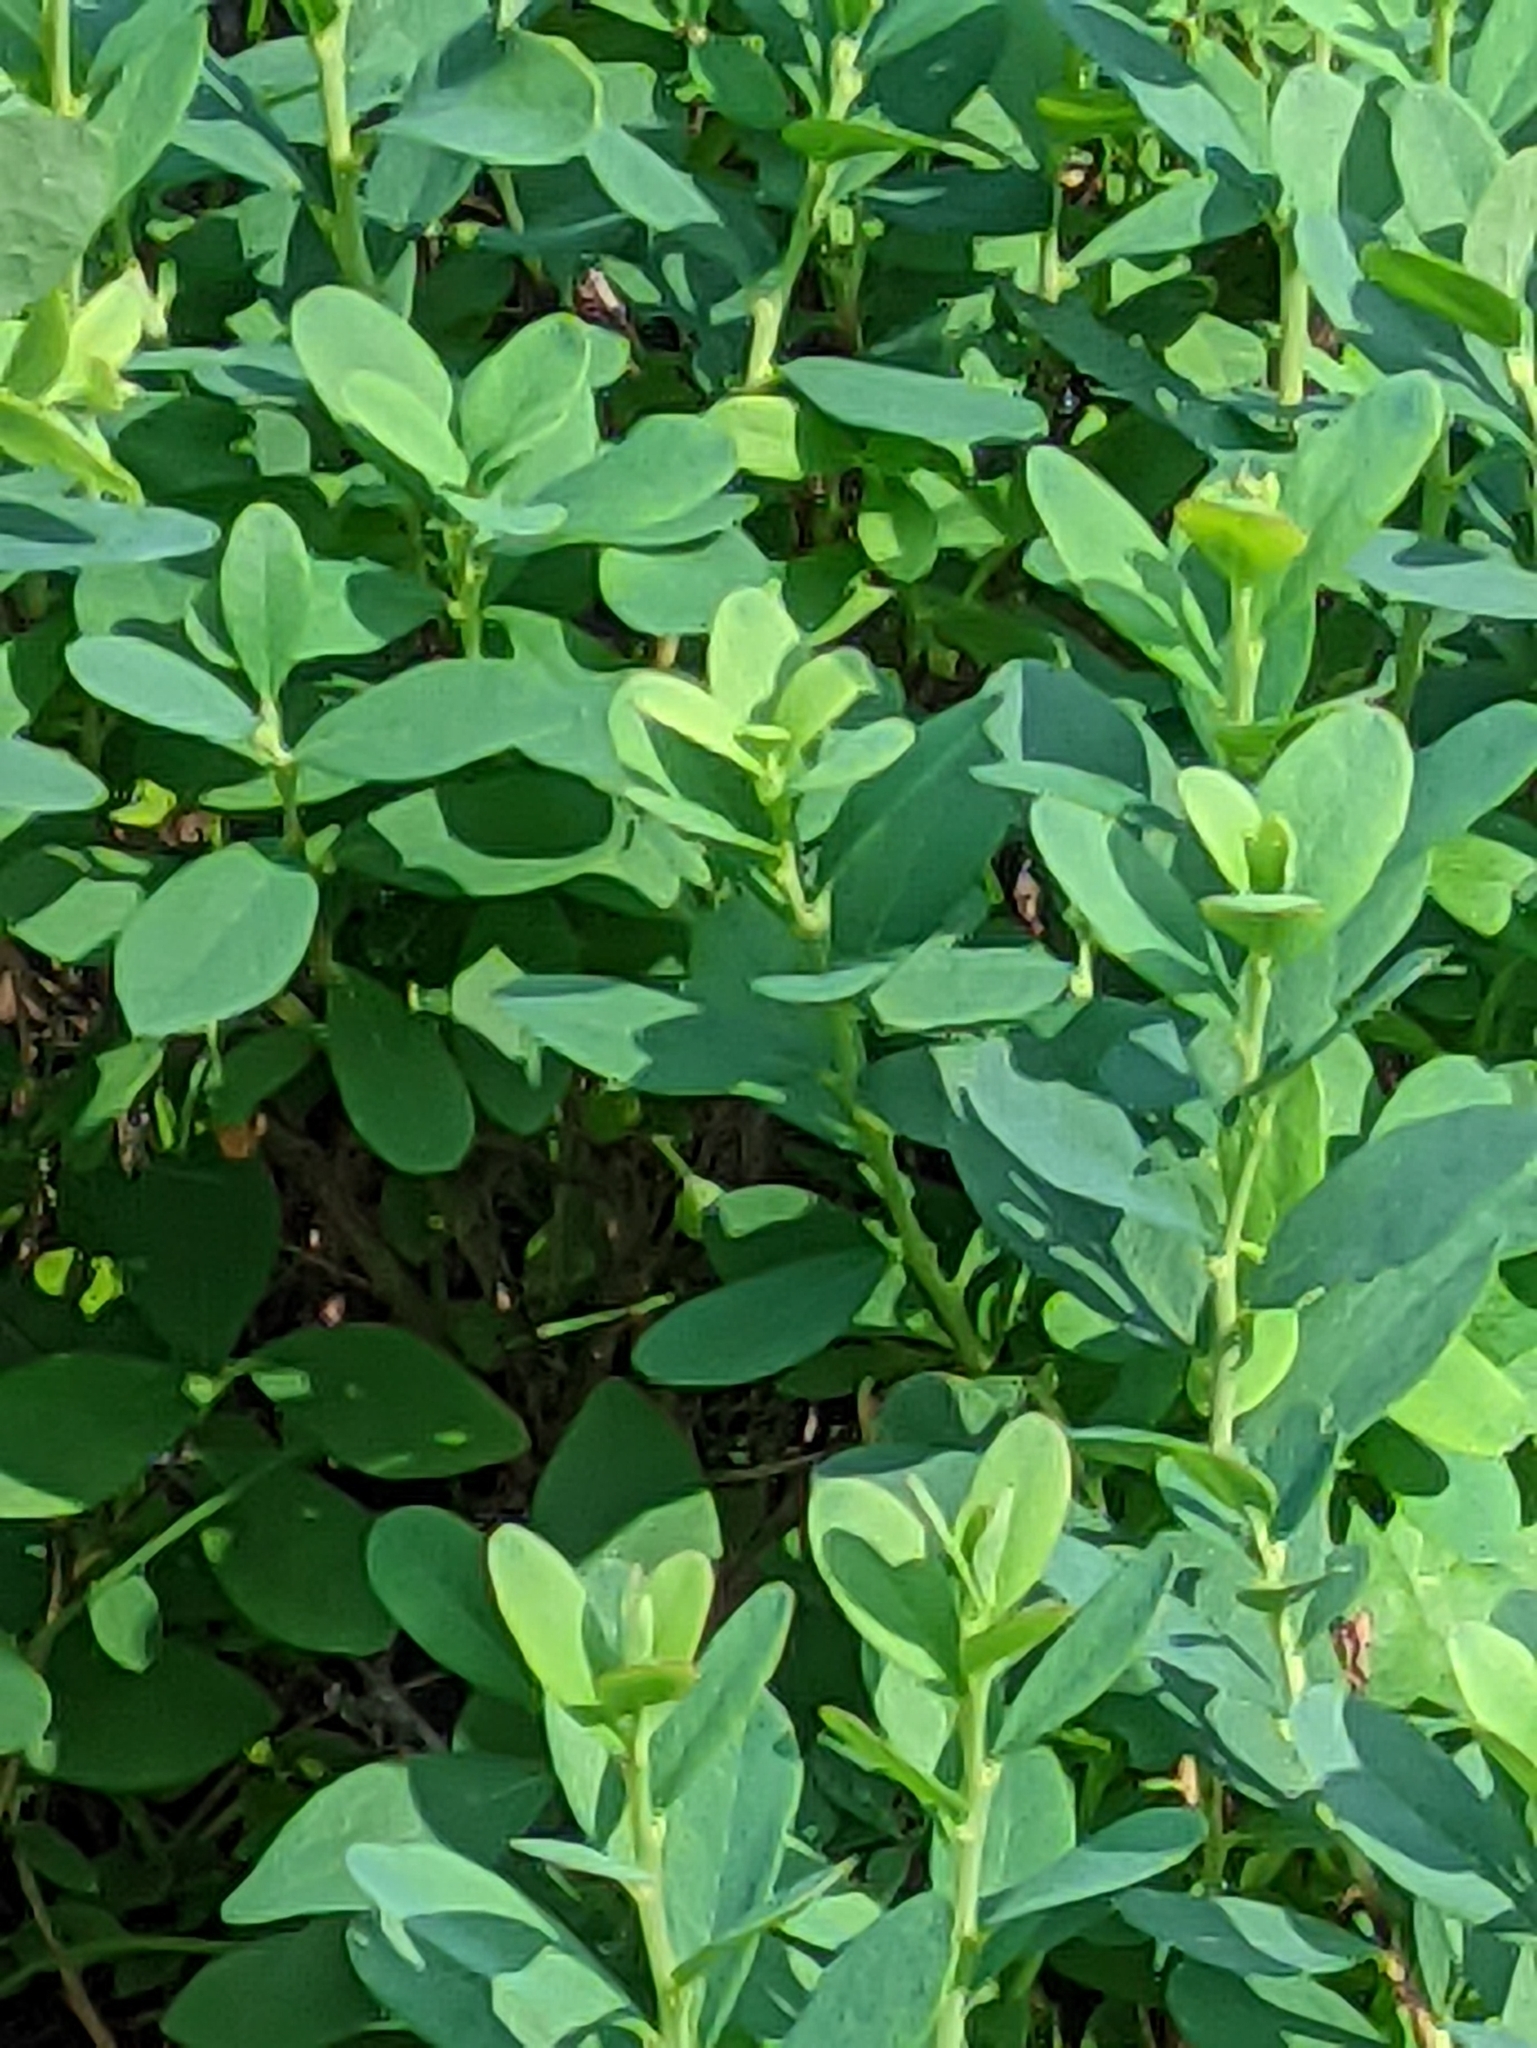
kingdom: Plantae
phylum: Tracheophyta
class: Magnoliopsida
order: Ericales
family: Ericaceae
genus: Vaccinium
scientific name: Vaccinium uliginosum
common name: Bog bilberry
